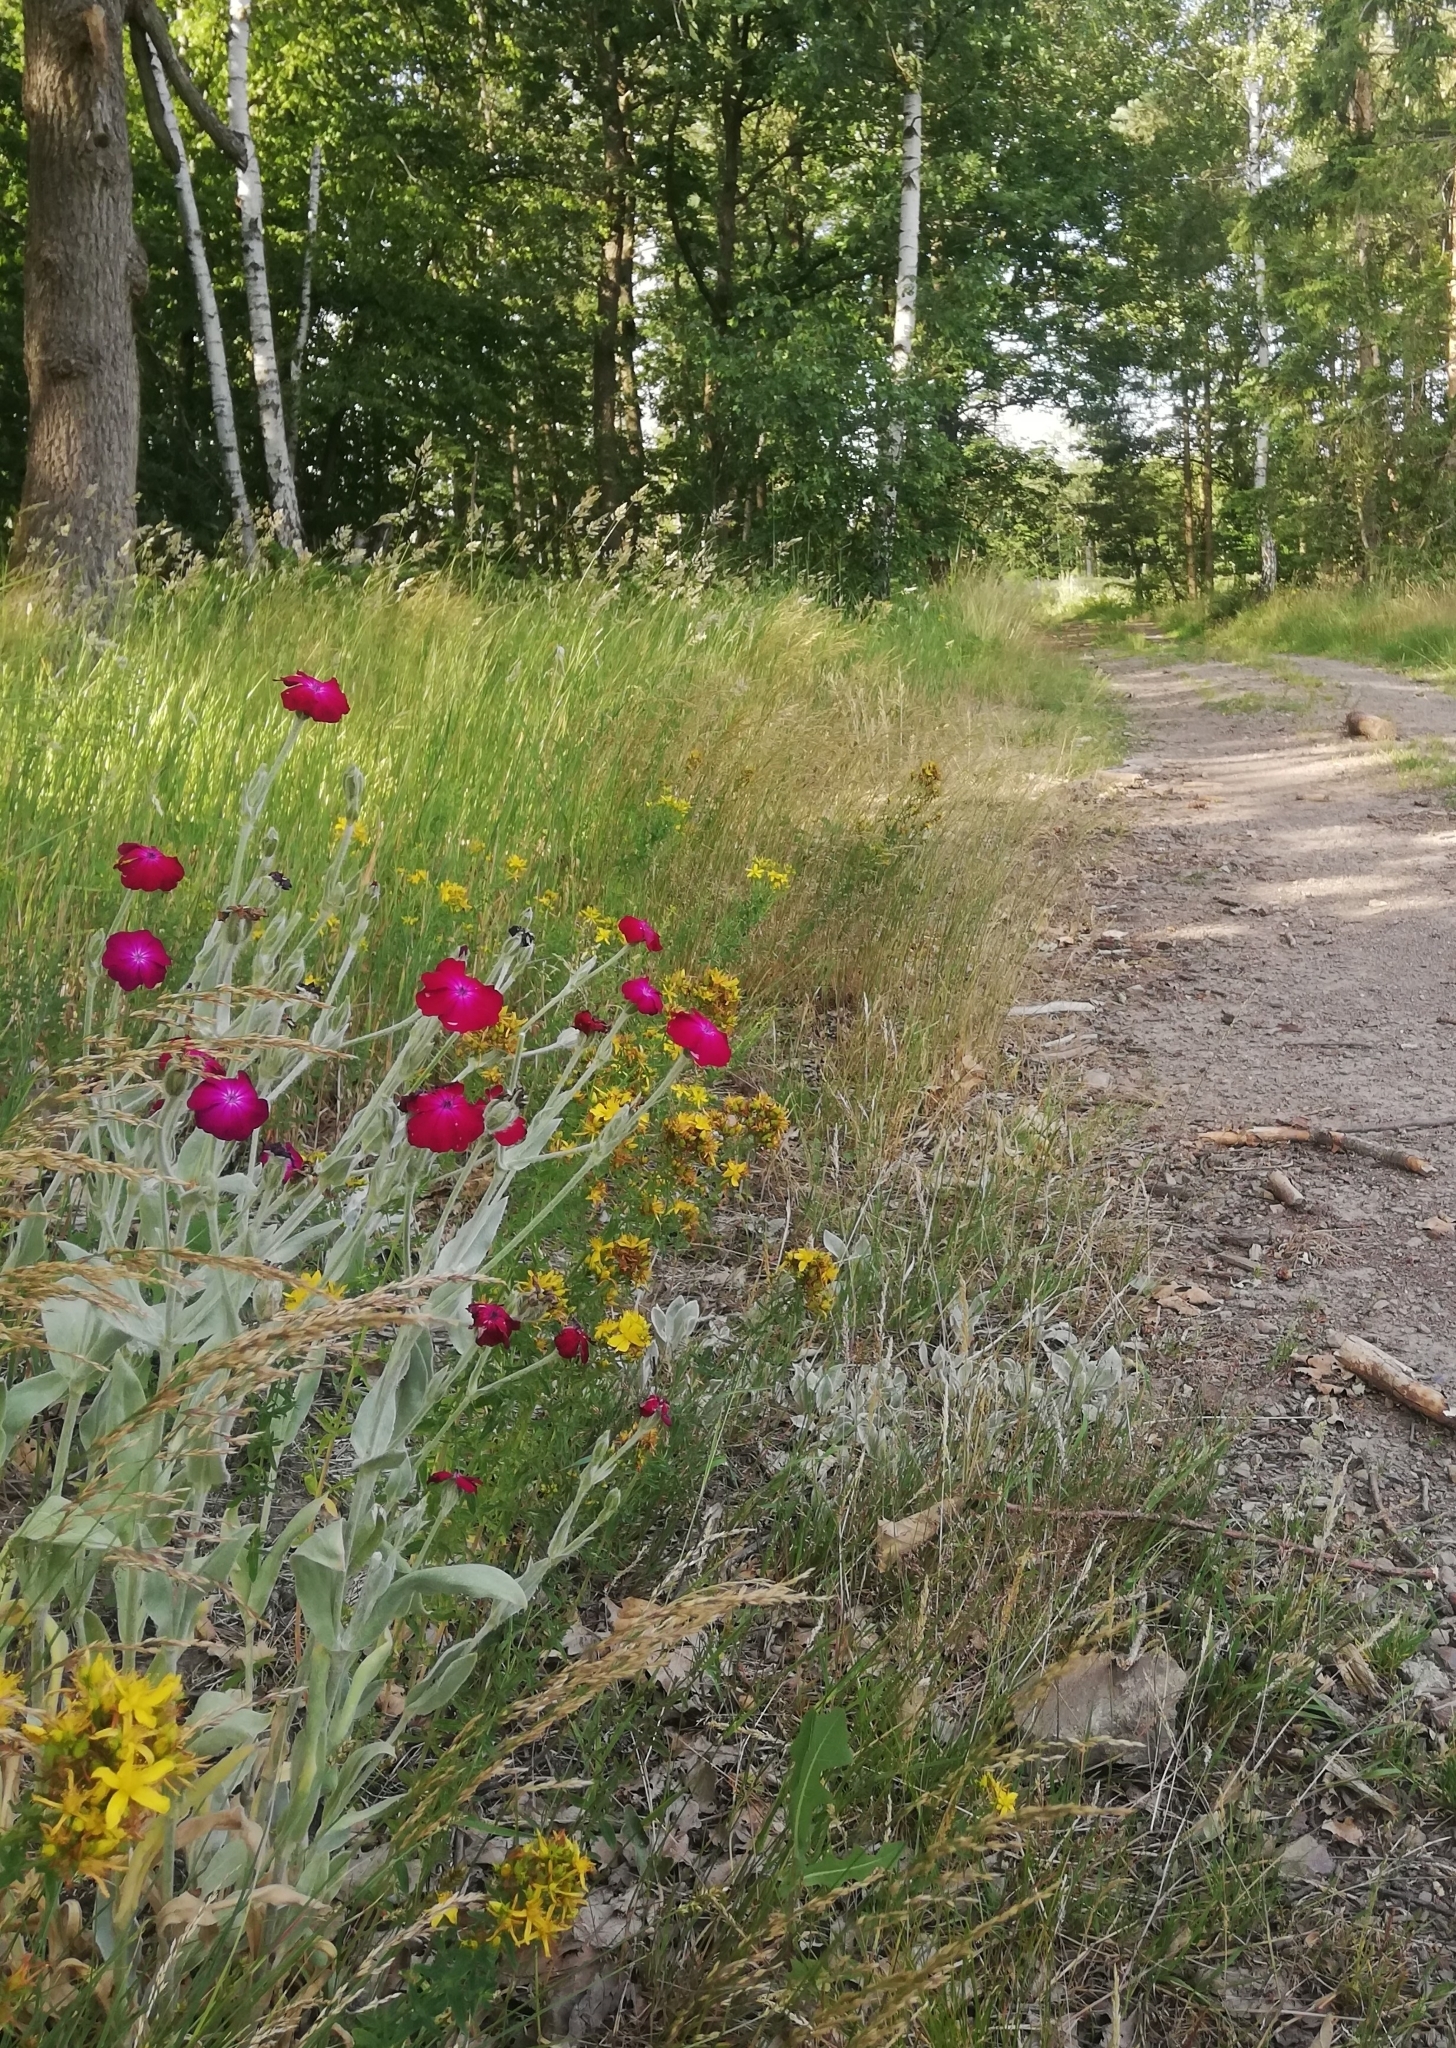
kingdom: Plantae
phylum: Tracheophyta
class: Magnoliopsida
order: Caryophyllales
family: Caryophyllaceae
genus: Silene
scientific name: Silene coronaria
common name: Rose campion
